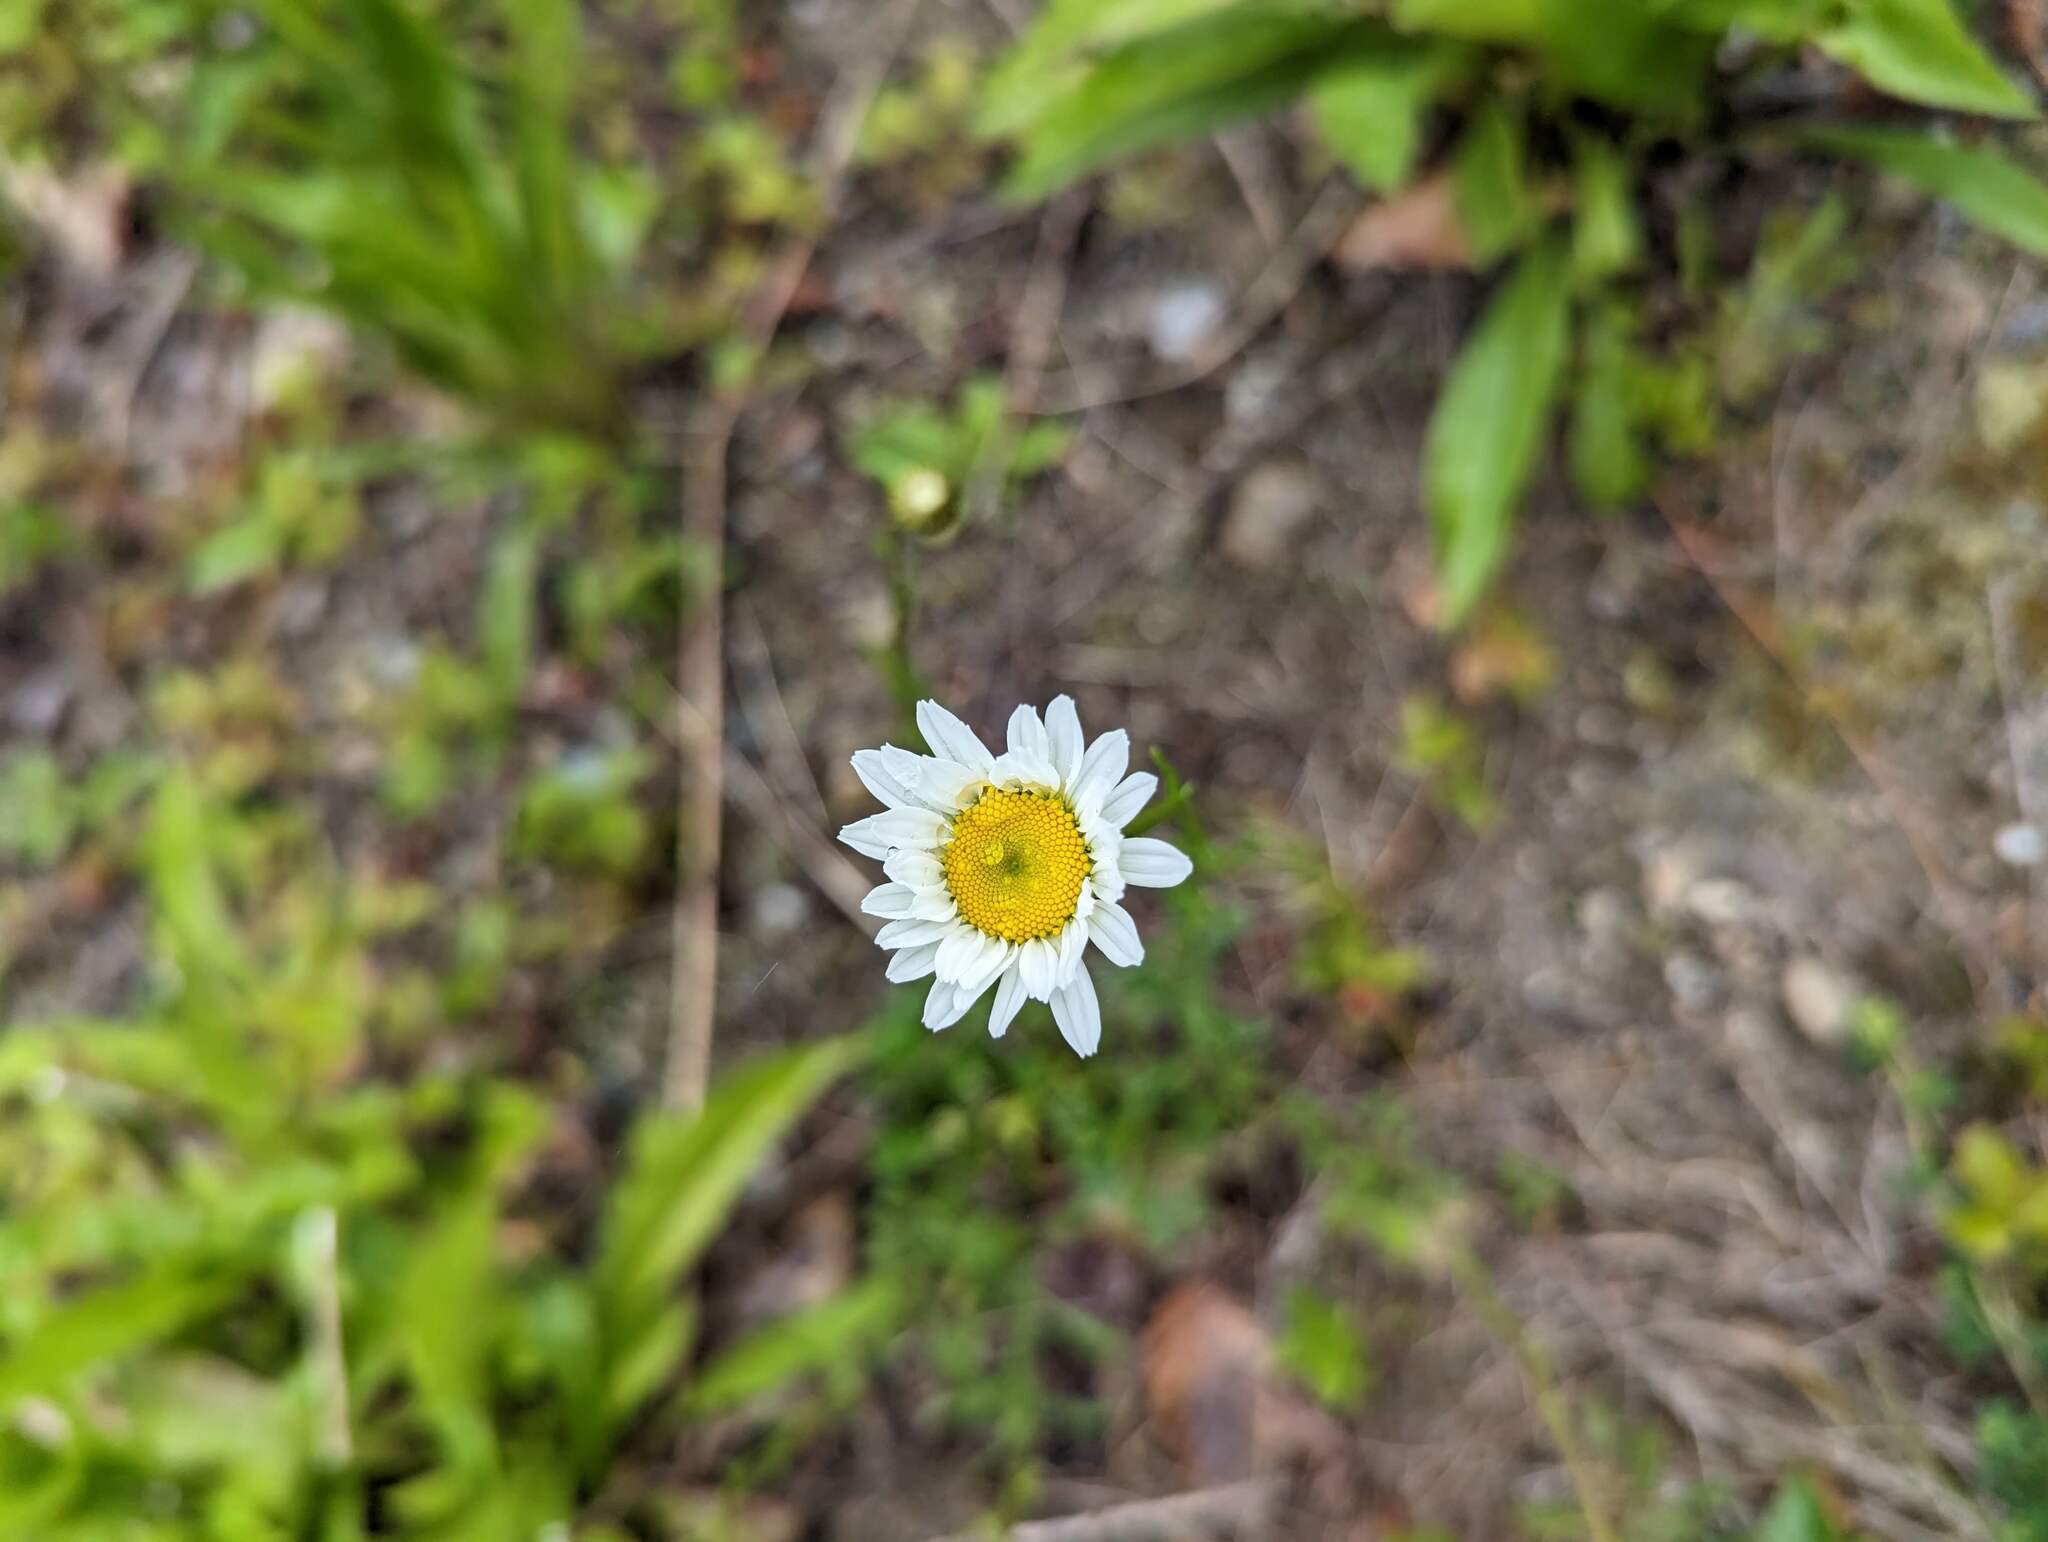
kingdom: Plantae
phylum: Tracheophyta
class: Magnoliopsida
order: Asterales
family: Asteraceae
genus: Leucanthemum
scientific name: Leucanthemum vulgare
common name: Oxeye daisy
